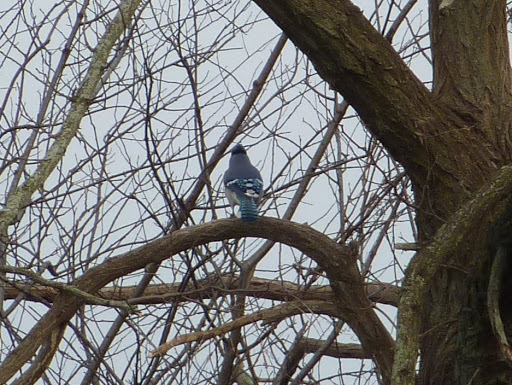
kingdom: Animalia
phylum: Chordata
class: Aves
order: Passeriformes
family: Corvidae
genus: Cyanocitta
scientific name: Cyanocitta cristata
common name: Blue jay
